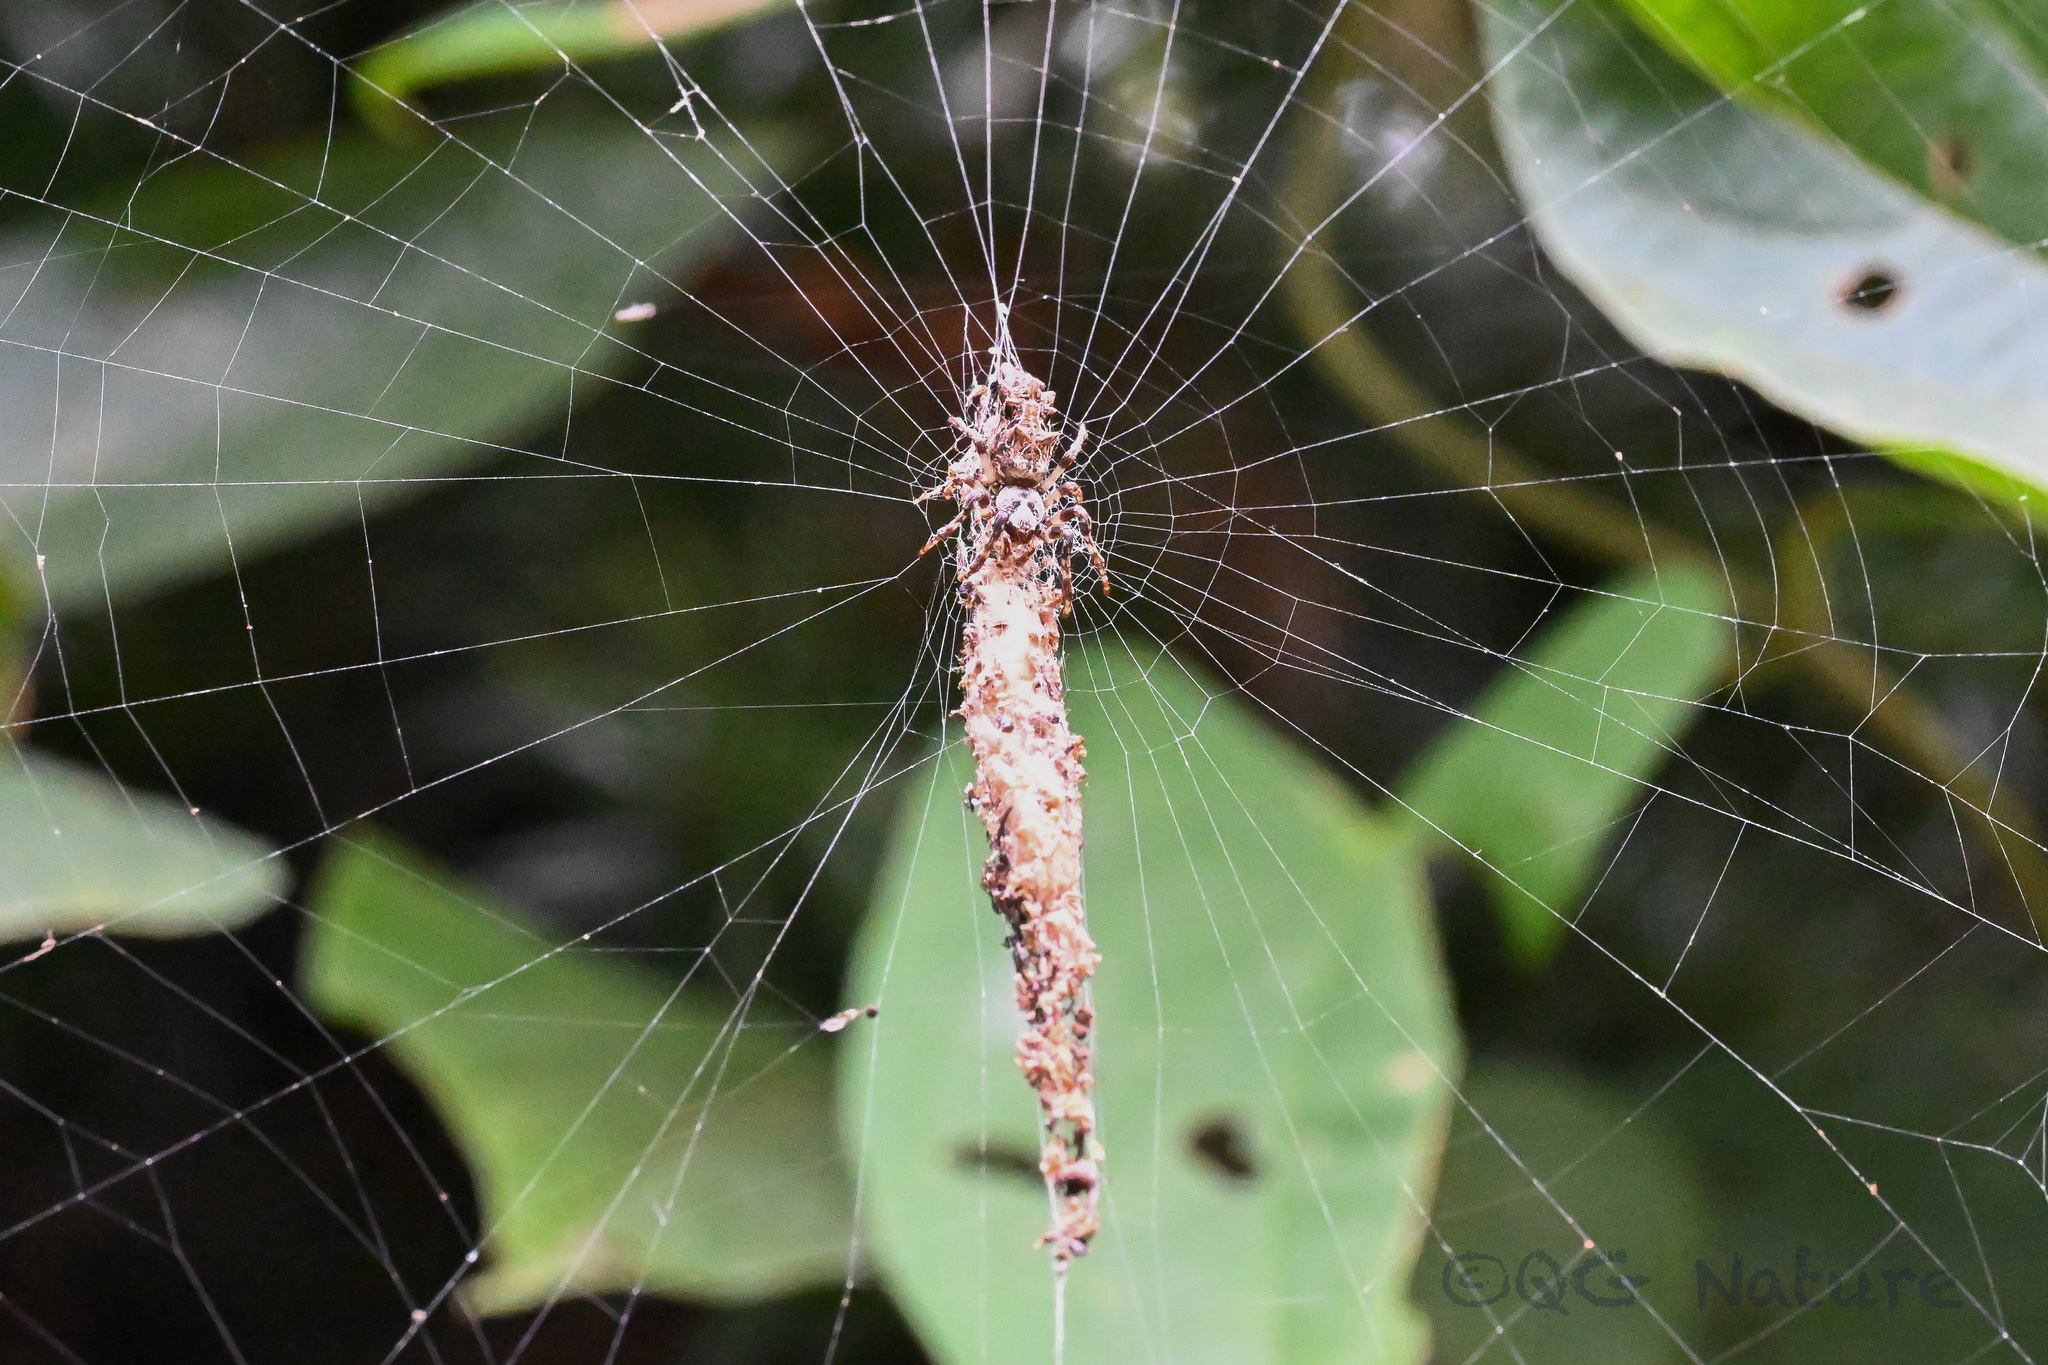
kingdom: Animalia
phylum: Arthropoda
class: Arachnida
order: Araneae
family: Araneidae
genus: Cyclosa
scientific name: Cyclosa octotuberculata
